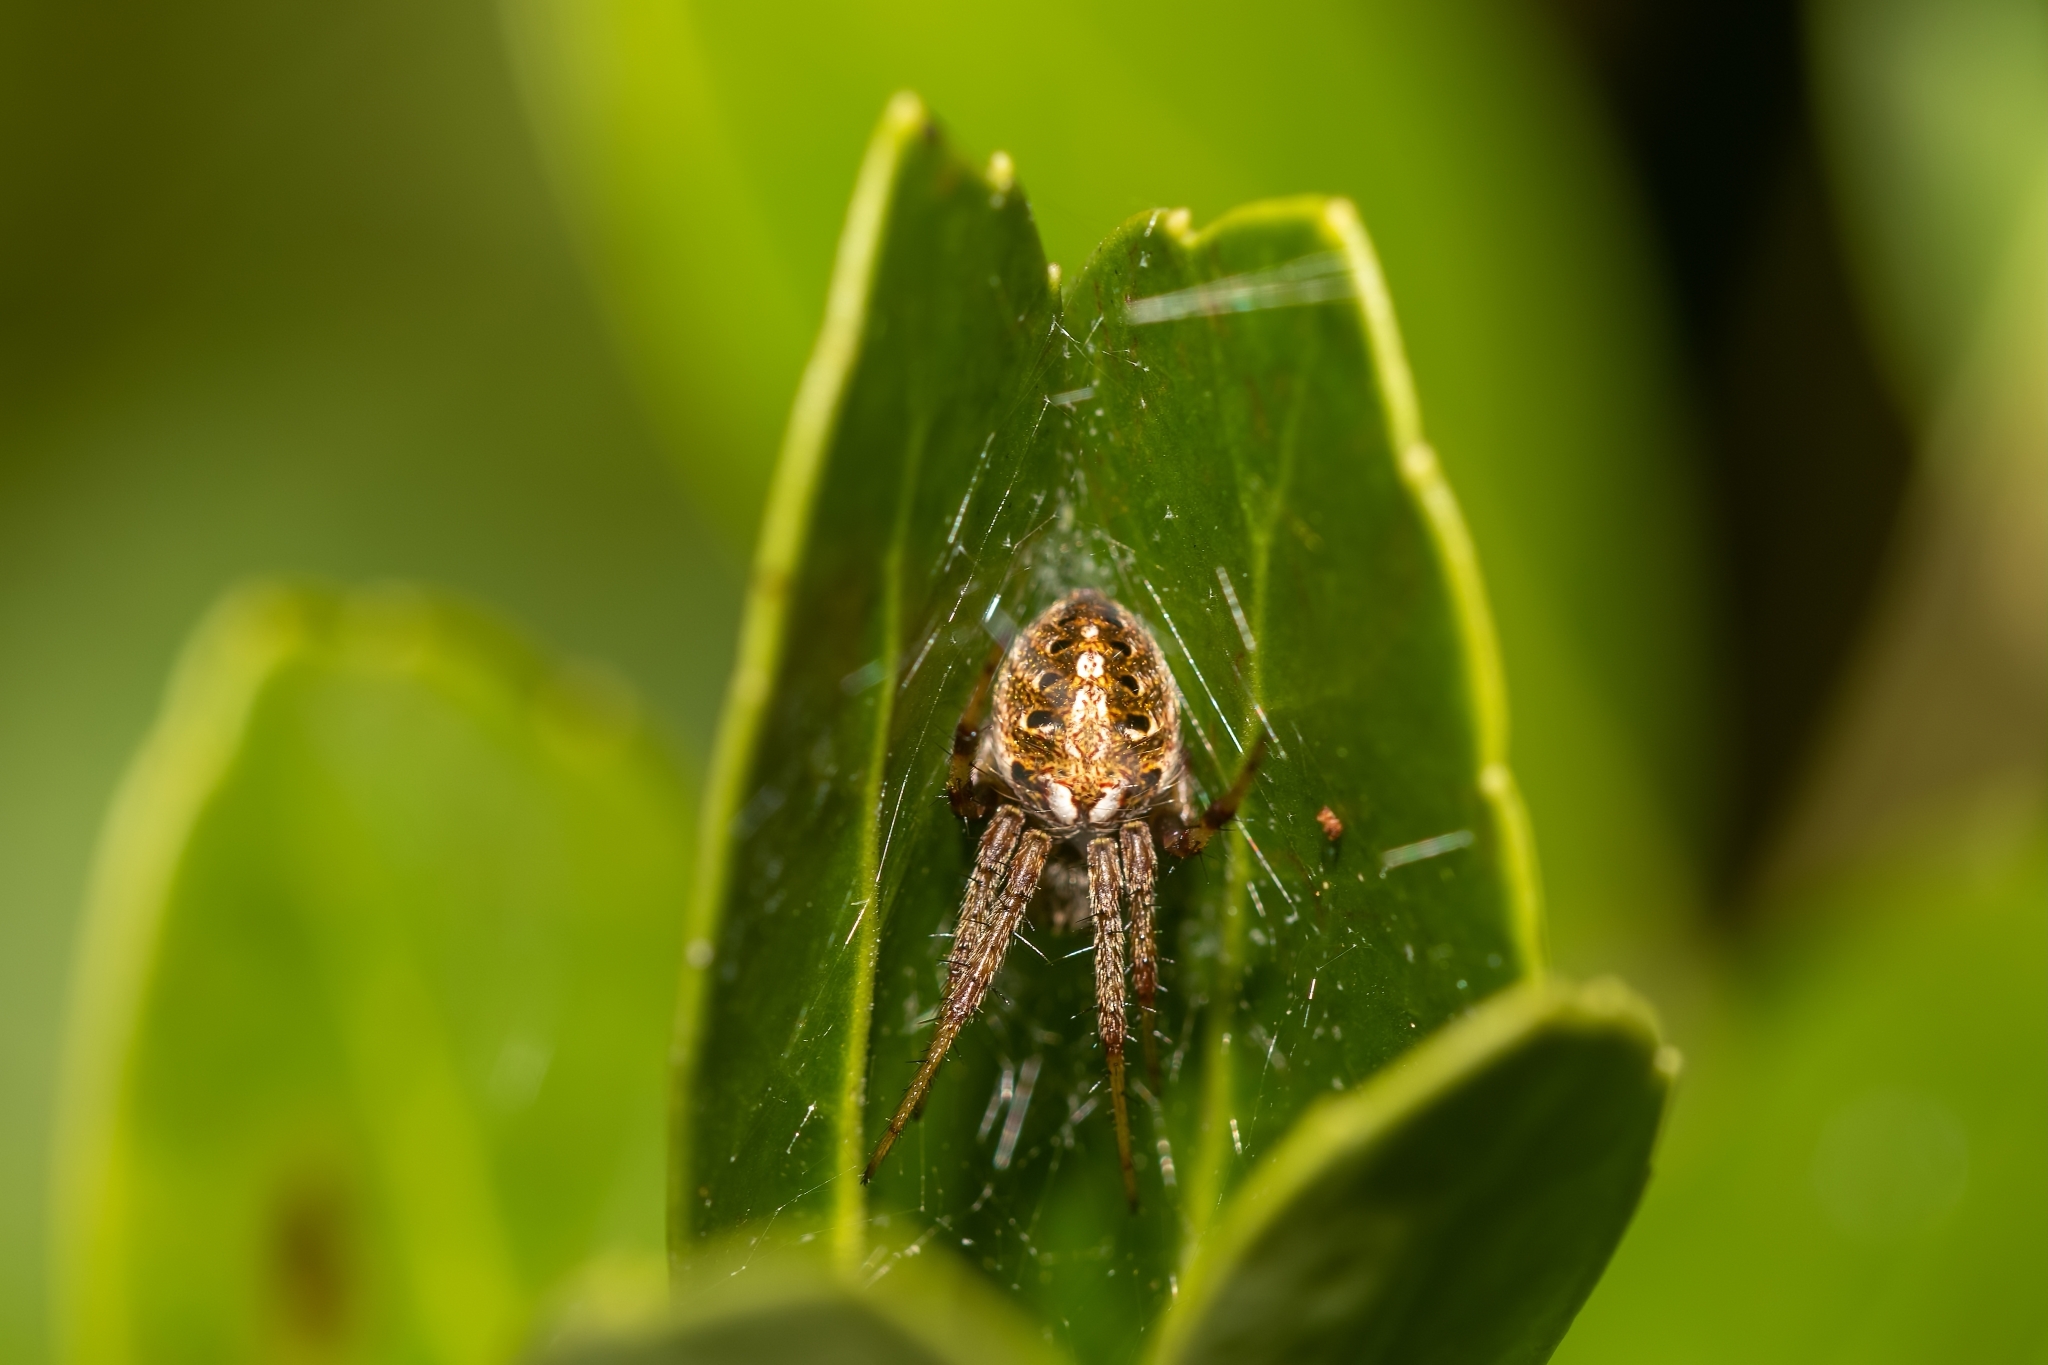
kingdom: Animalia
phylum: Arthropoda
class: Arachnida
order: Araneae
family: Araneidae
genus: Neoscona
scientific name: Neoscona arabesca
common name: Orb weavers
